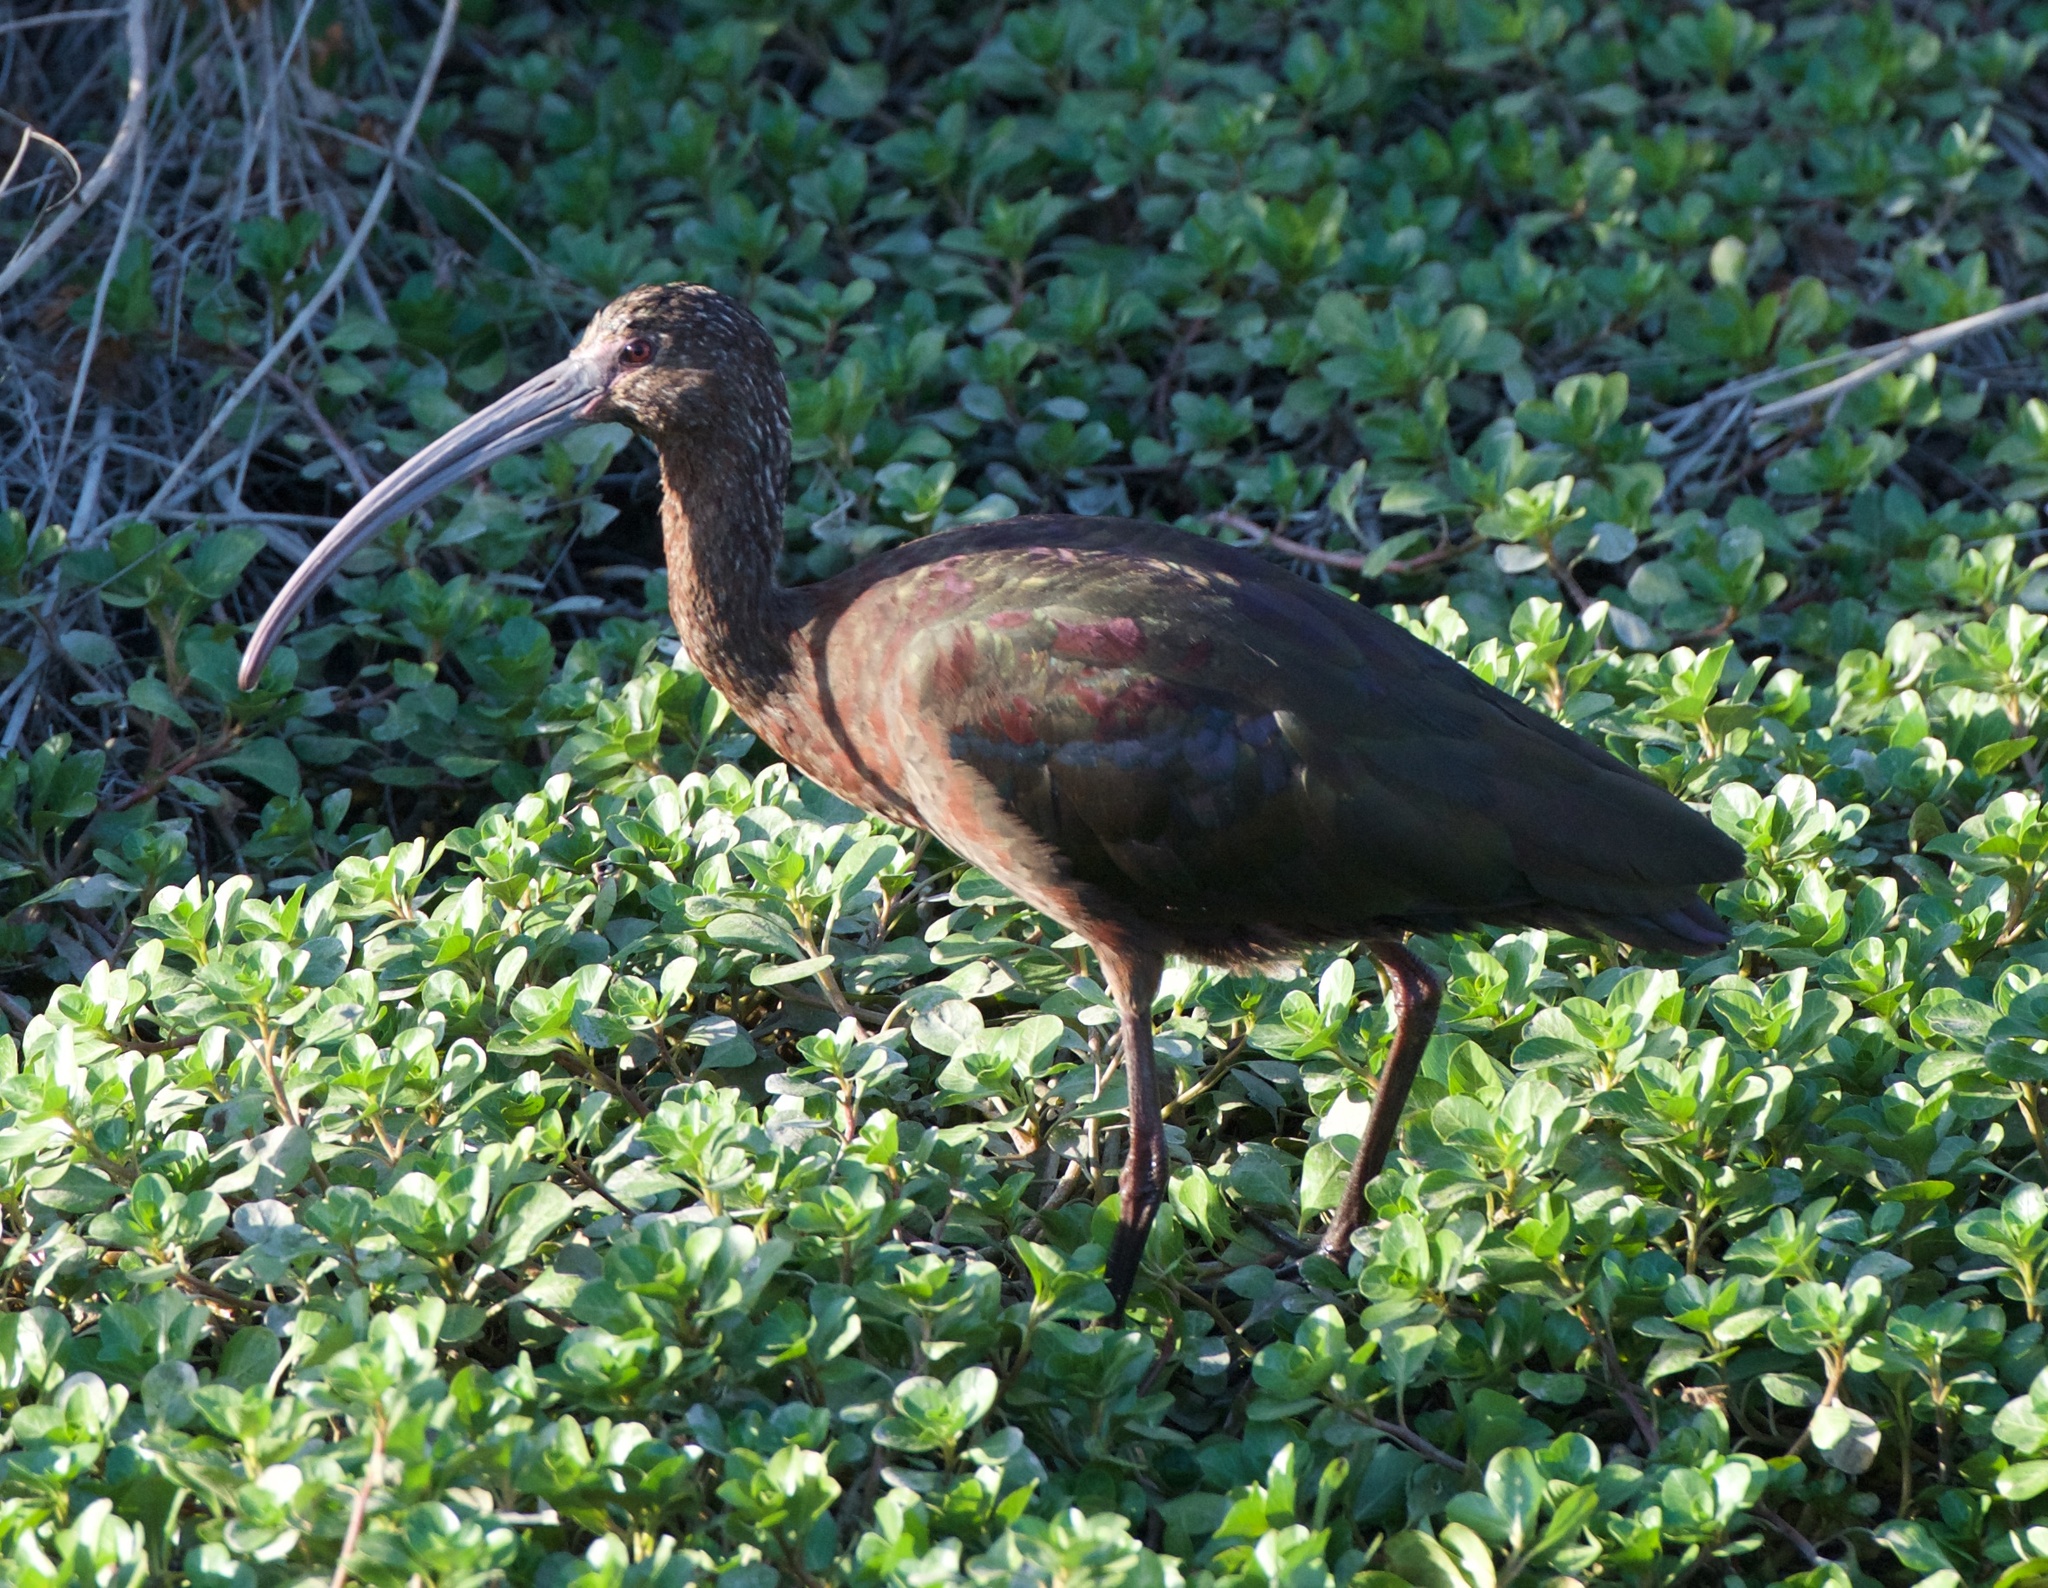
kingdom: Animalia
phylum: Chordata
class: Aves
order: Pelecaniformes
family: Threskiornithidae
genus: Plegadis
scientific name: Plegadis chihi
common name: White-faced ibis
